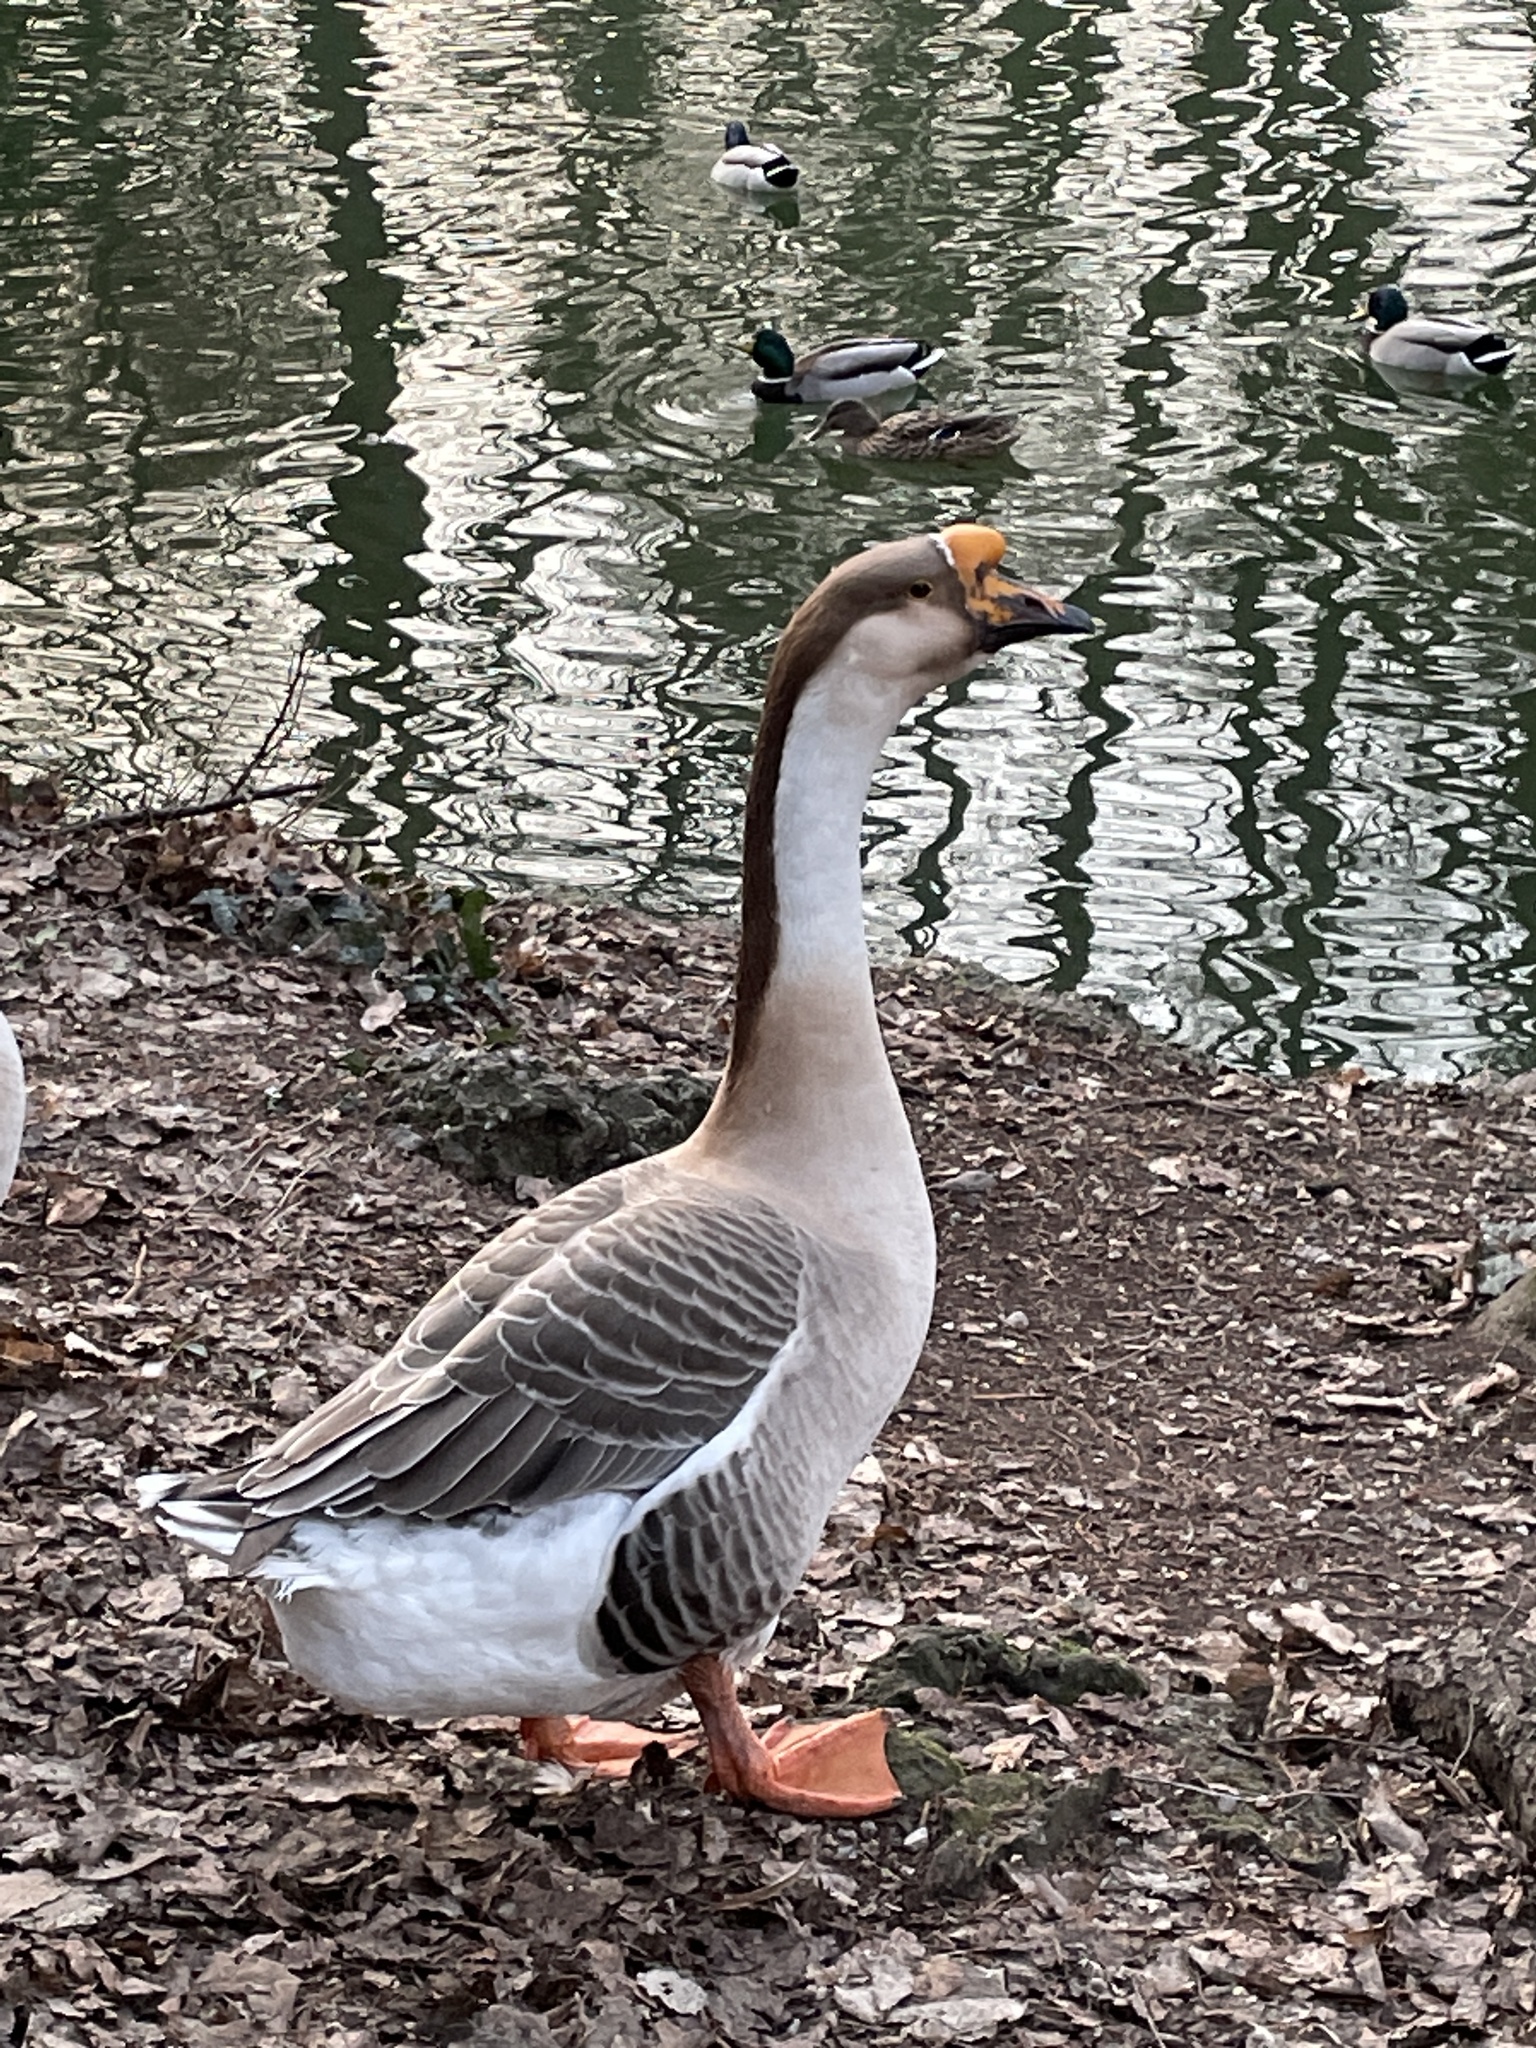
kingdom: Animalia
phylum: Chordata
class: Aves
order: Anseriformes
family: Anatidae
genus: Anser
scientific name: Anser cygnoides
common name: Swan goose
